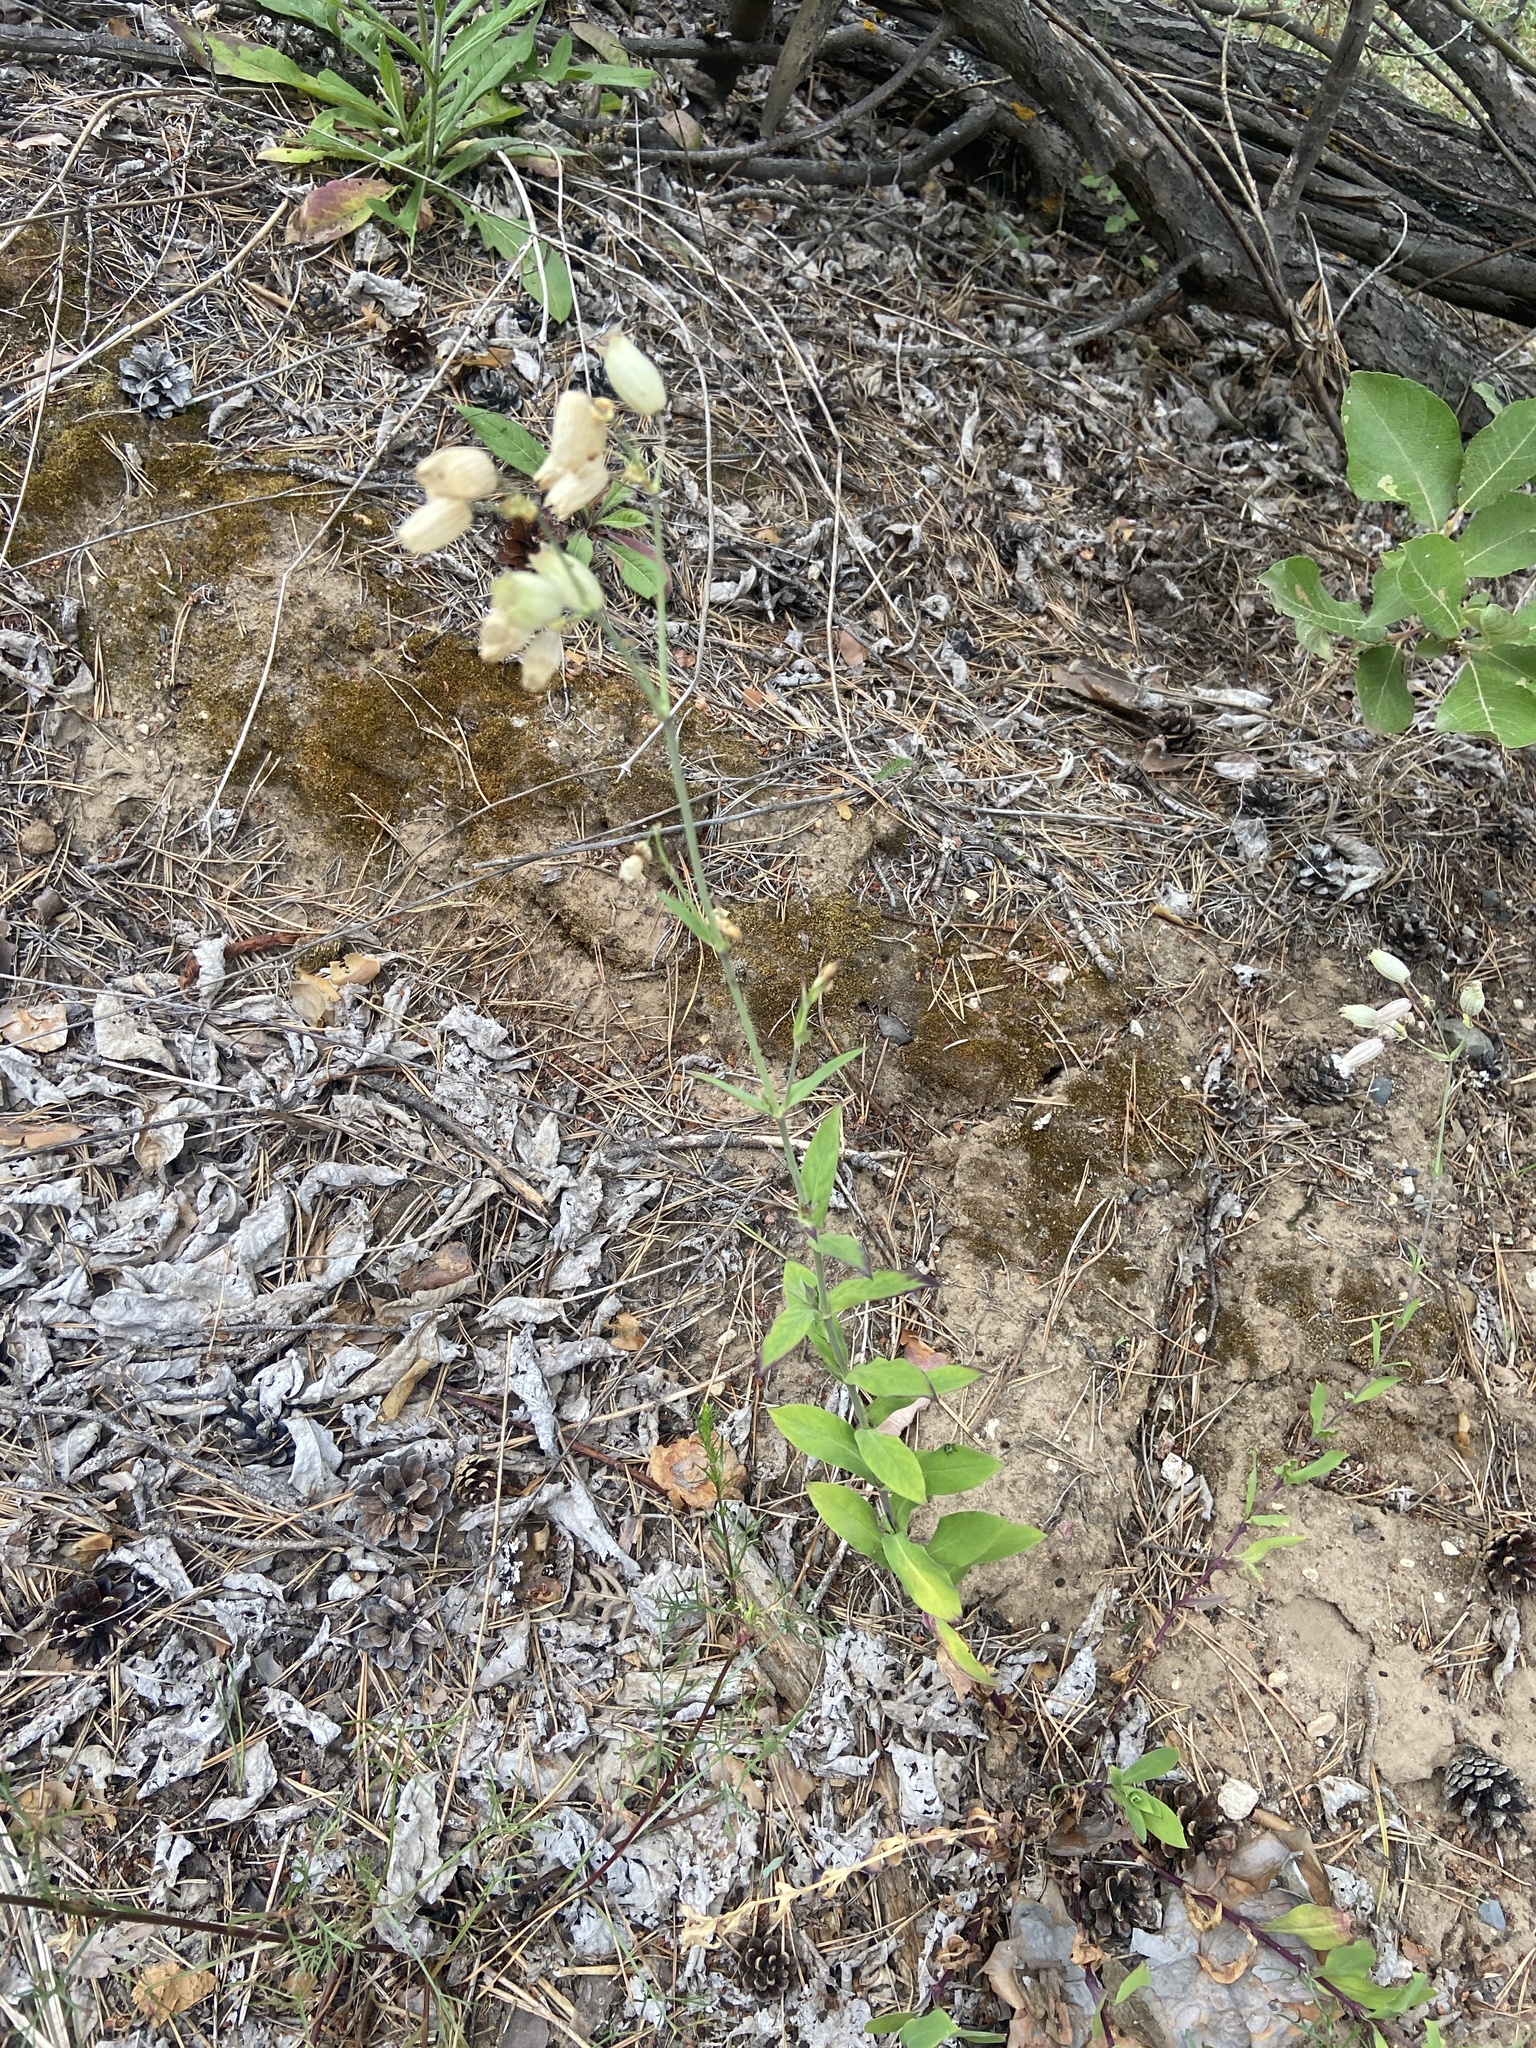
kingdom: Plantae
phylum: Tracheophyta
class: Magnoliopsida
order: Caryophyllales
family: Caryophyllaceae
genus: Silene
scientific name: Silene vulgaris
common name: Bladder campion
